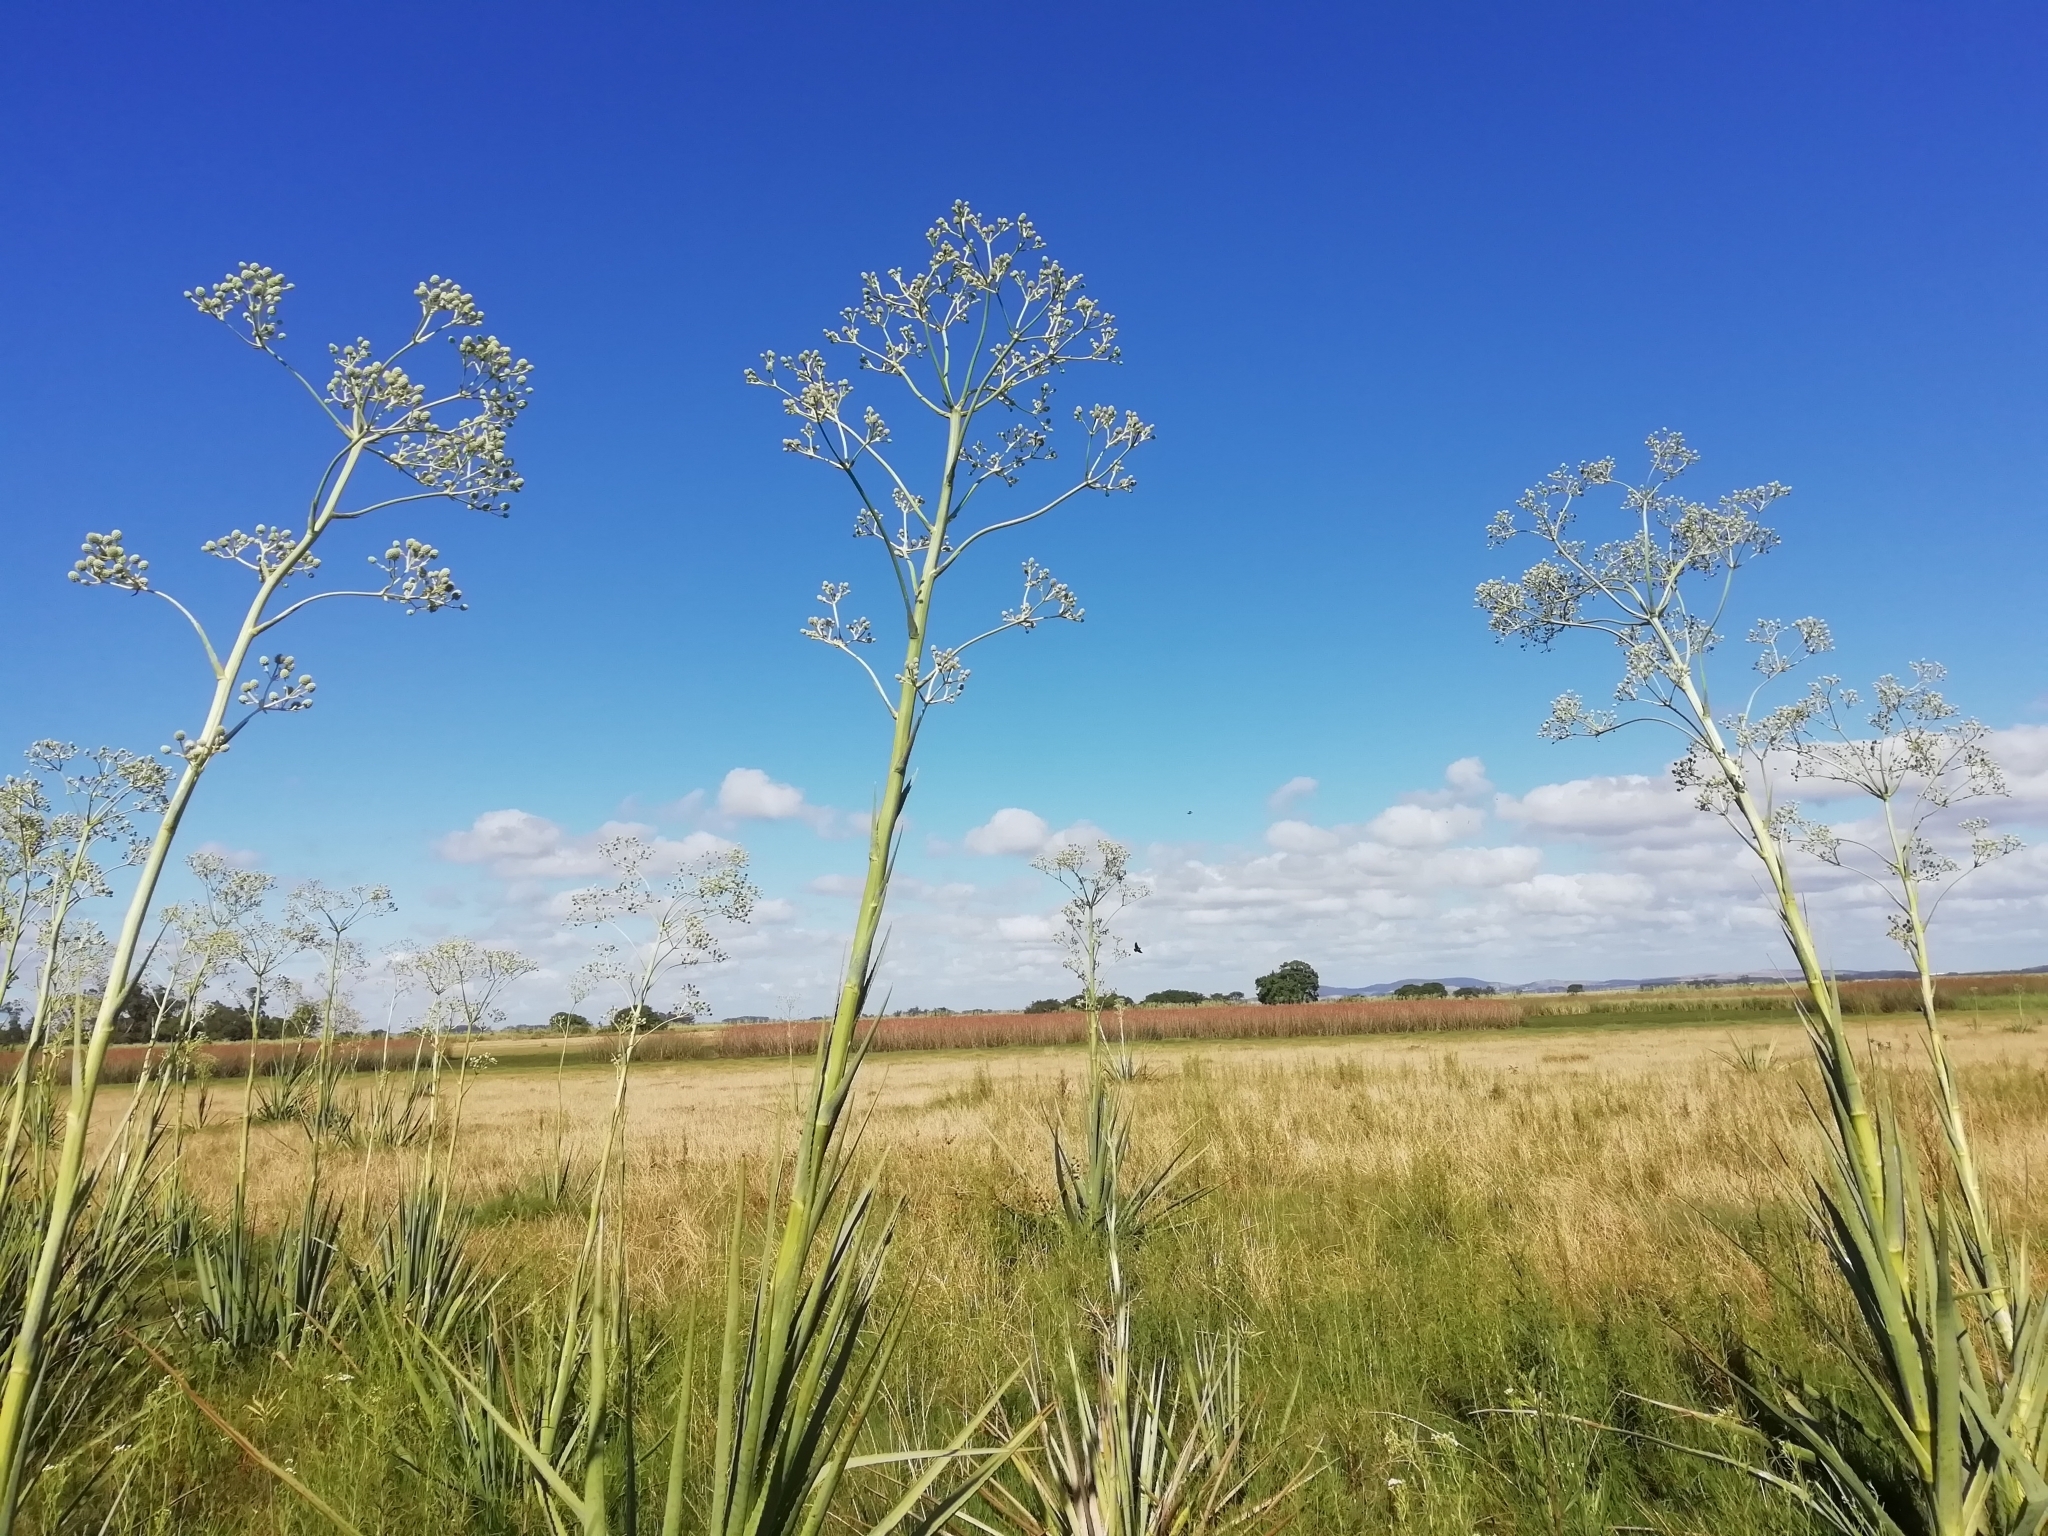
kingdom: Plantae
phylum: Tracheophyta
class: Magnoliopsida
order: Apiales
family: Apiaceae
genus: Eryngium
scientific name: Eryngium pandanifolium
